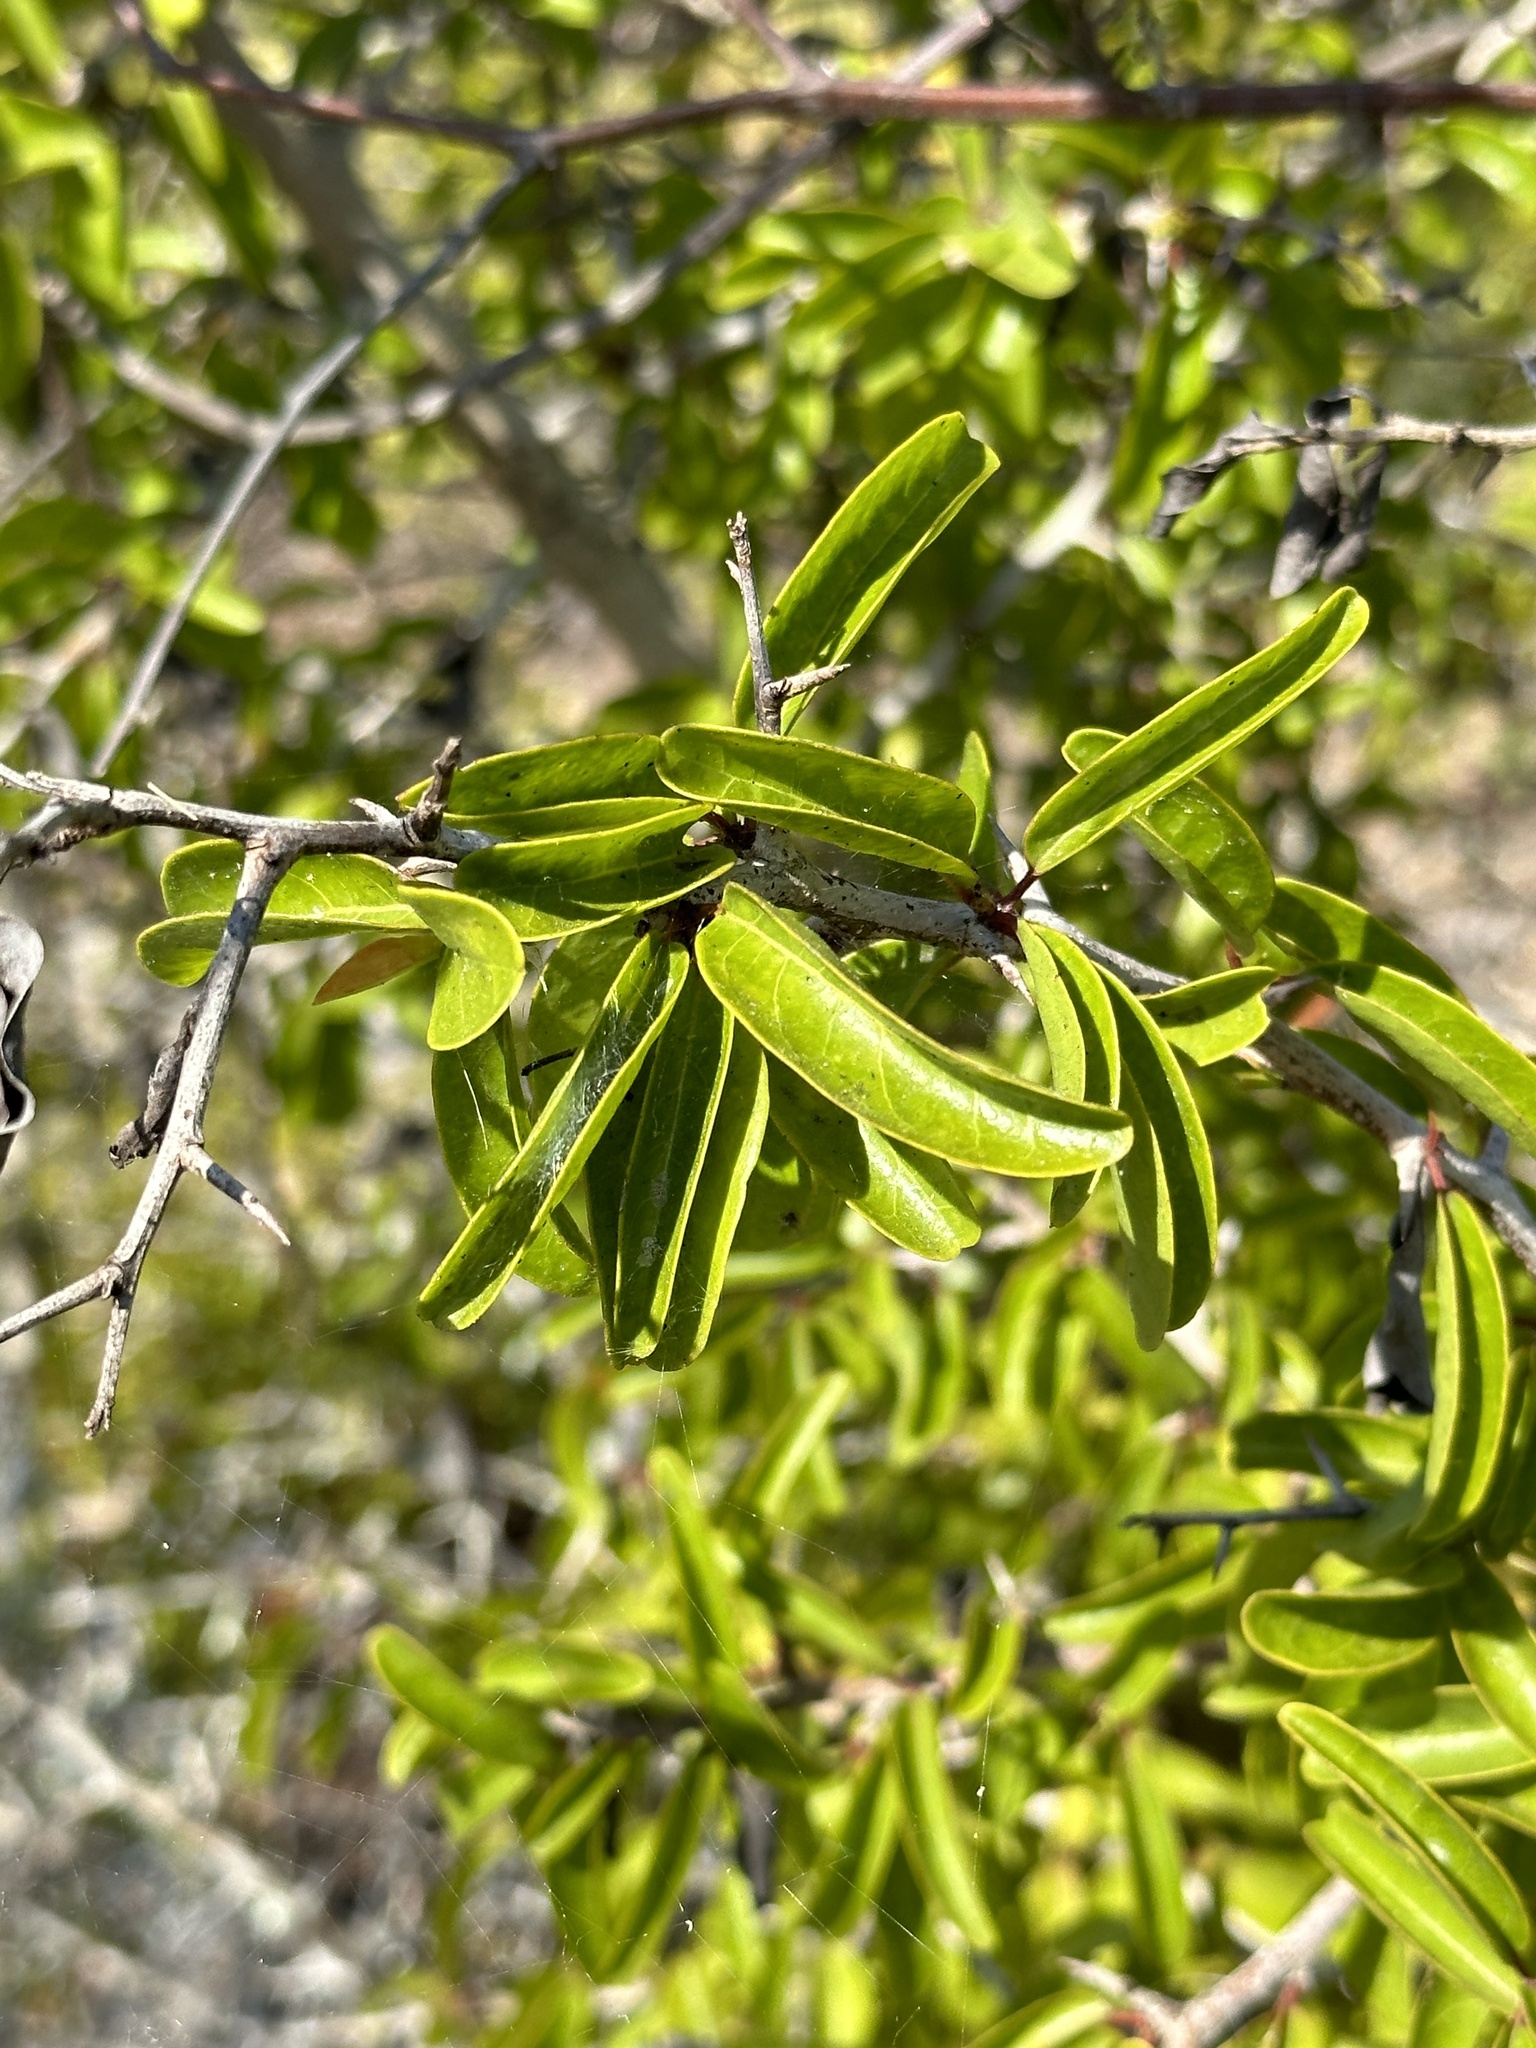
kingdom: Plantae
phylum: Tracheophyta
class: Magnoliopsida
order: Santalales
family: Ximeniaceae
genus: Ximenia
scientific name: Ximenia americana
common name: Tallowwood
